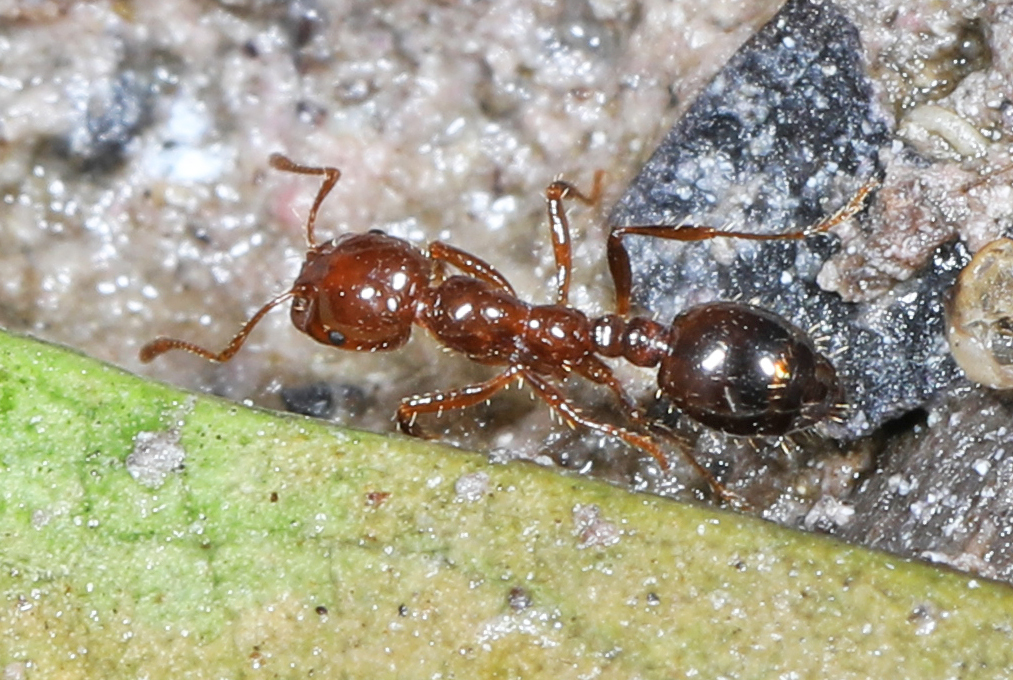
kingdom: Animalia
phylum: Arthropoda
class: Insecta
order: Hymenoptera
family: Formicidae
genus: Solenopsis
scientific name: Solenopsis invicta
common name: Red imported fire ant
